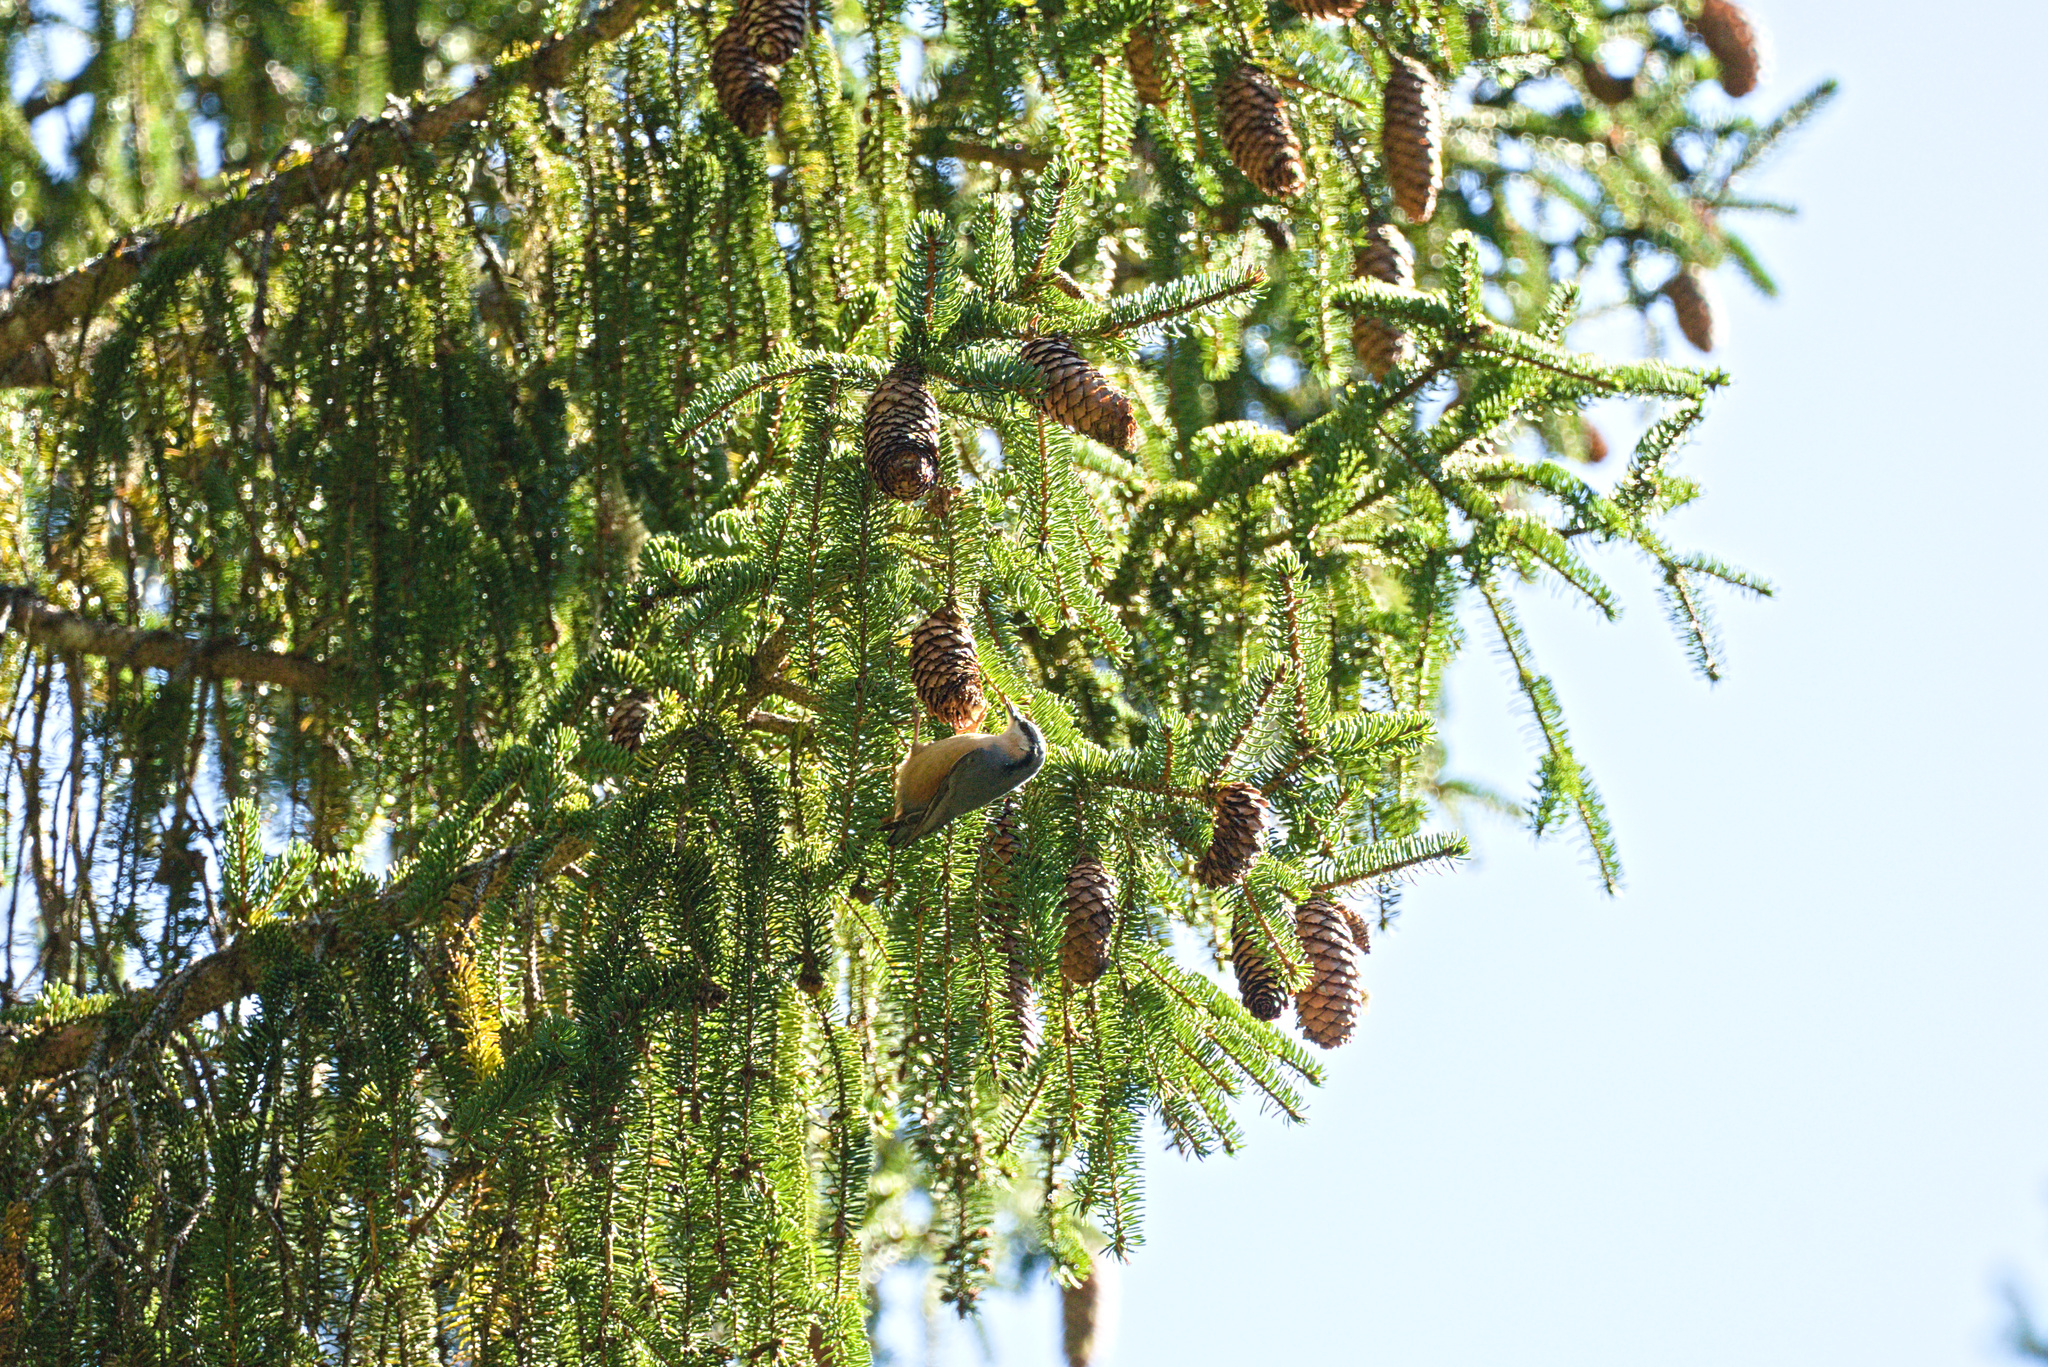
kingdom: Animalia
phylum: Chordata
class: Aves
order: Passeriformes
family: Sittidae
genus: Sitta
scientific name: Sitta europaea
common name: Eurasian nuthatch
